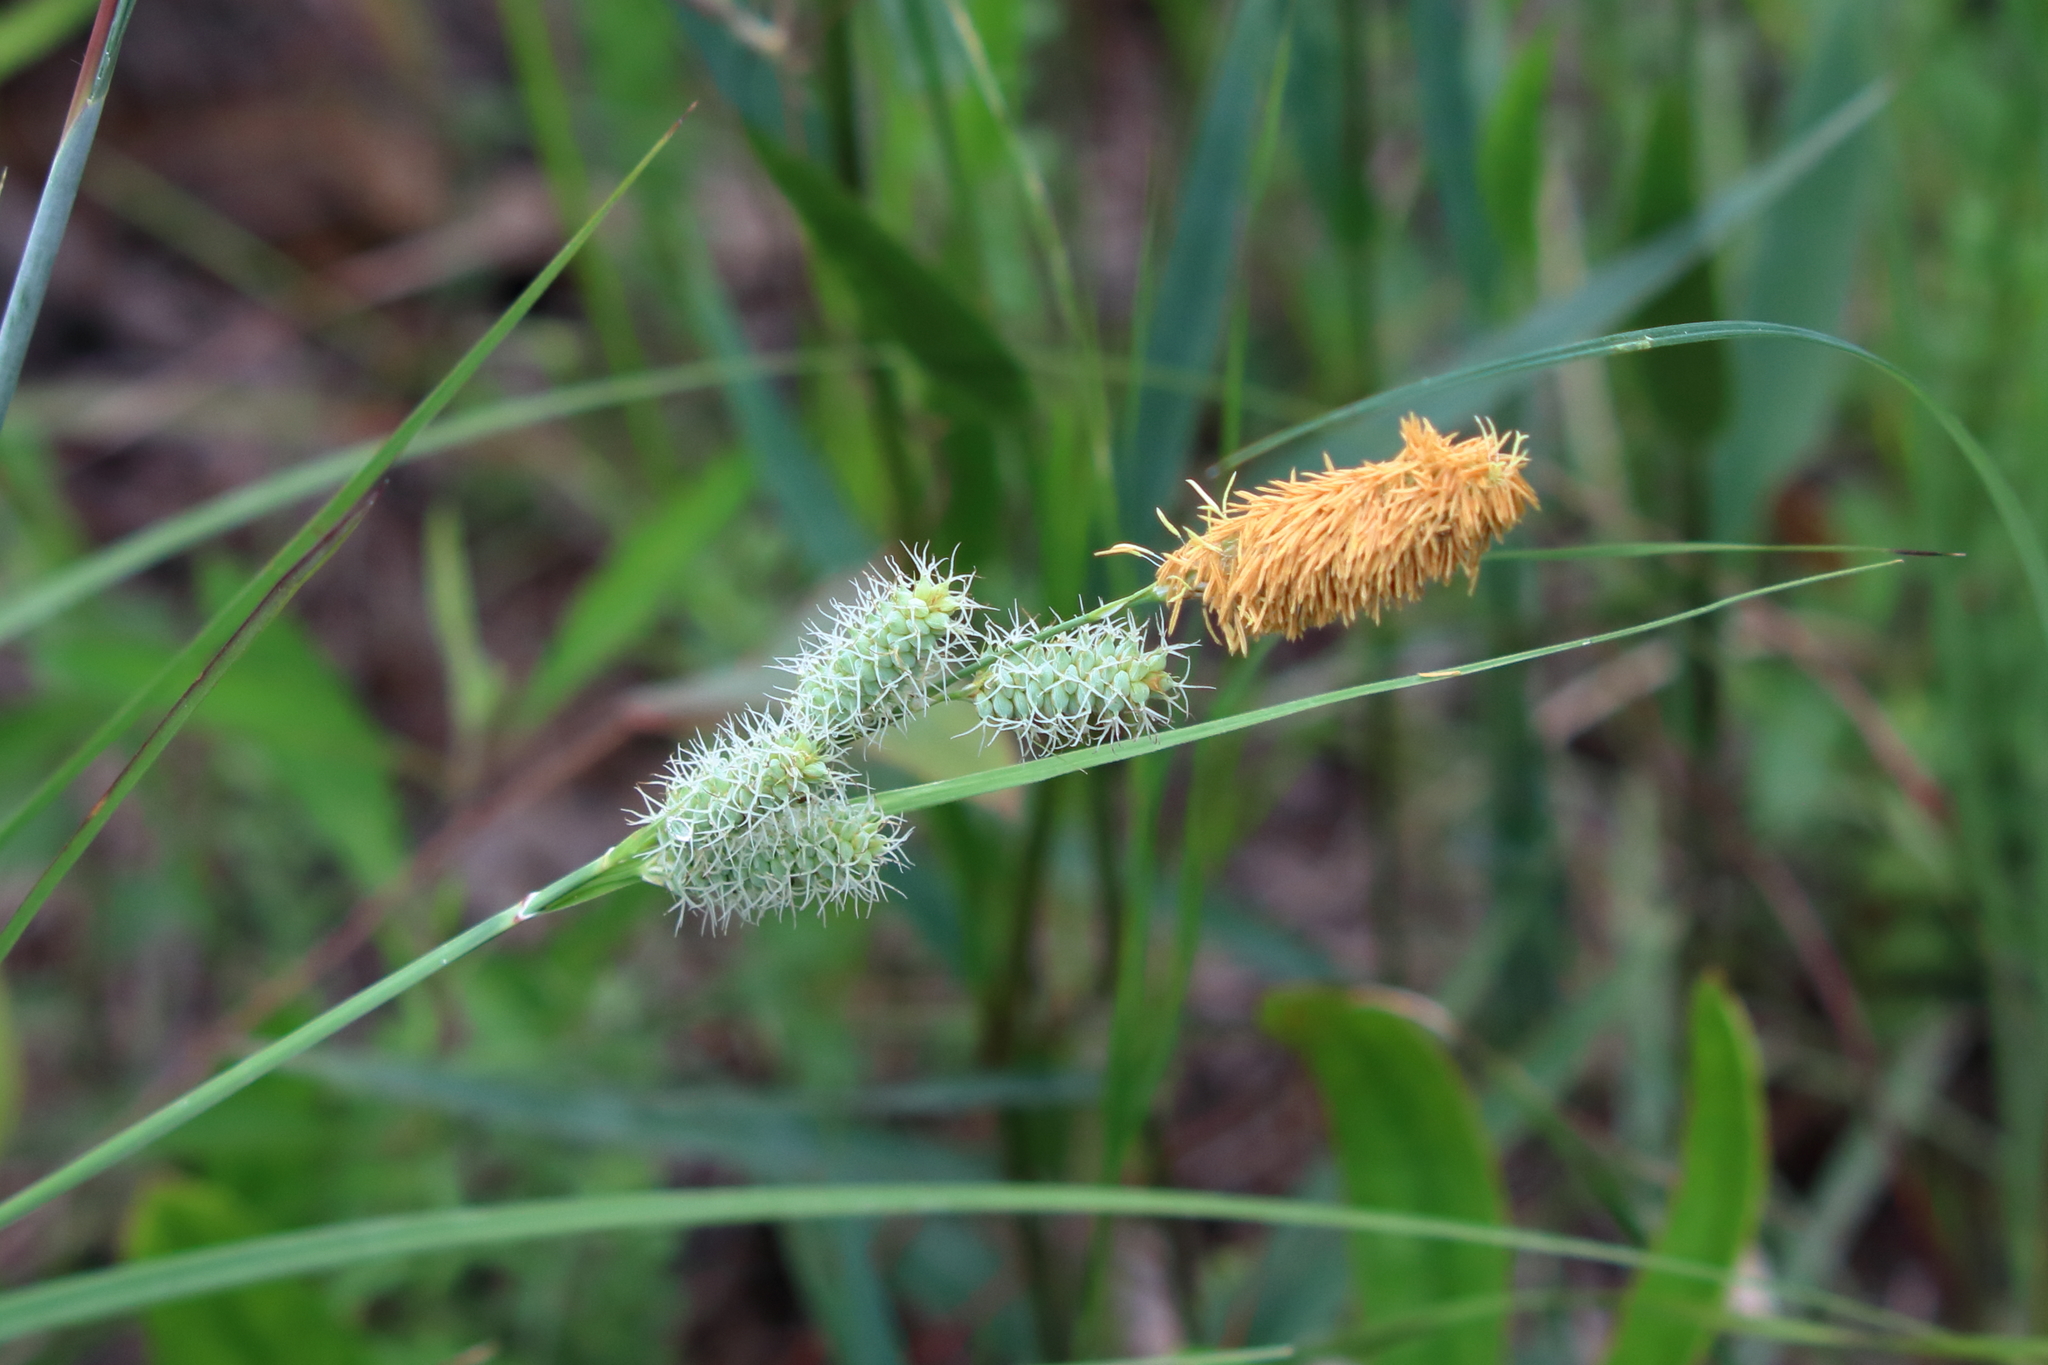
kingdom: Plantae
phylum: Tracheophyta
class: Liliopsida
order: Poales
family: Cyperaceae
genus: Carex
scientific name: Carex glaucescens
